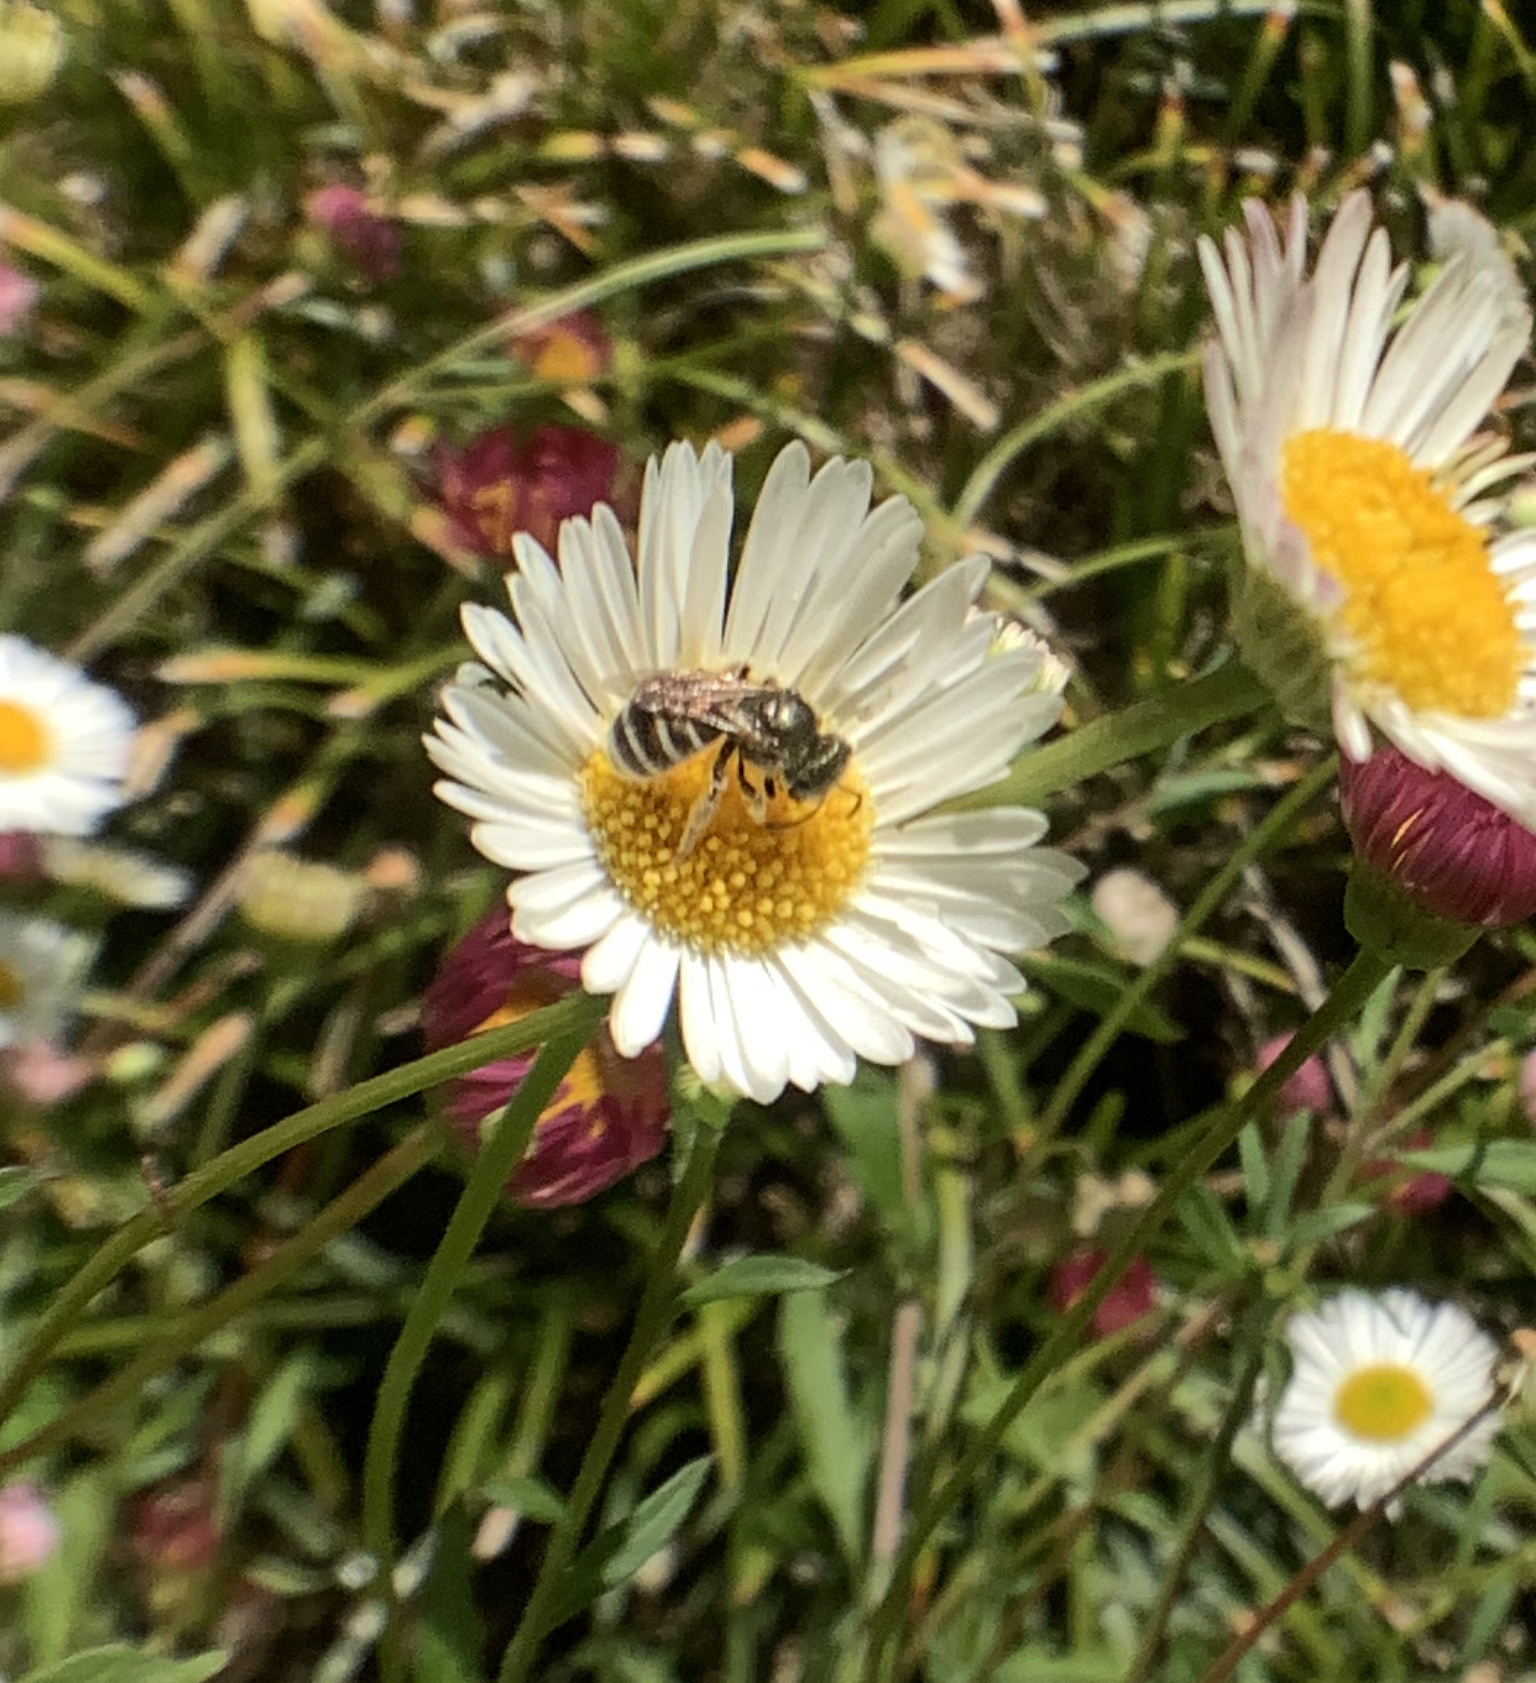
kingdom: Animalia
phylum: Arthropoda
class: Insecta
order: Hymenoptera
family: Halictidae
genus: Halictus
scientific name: Halictus tripartitus
